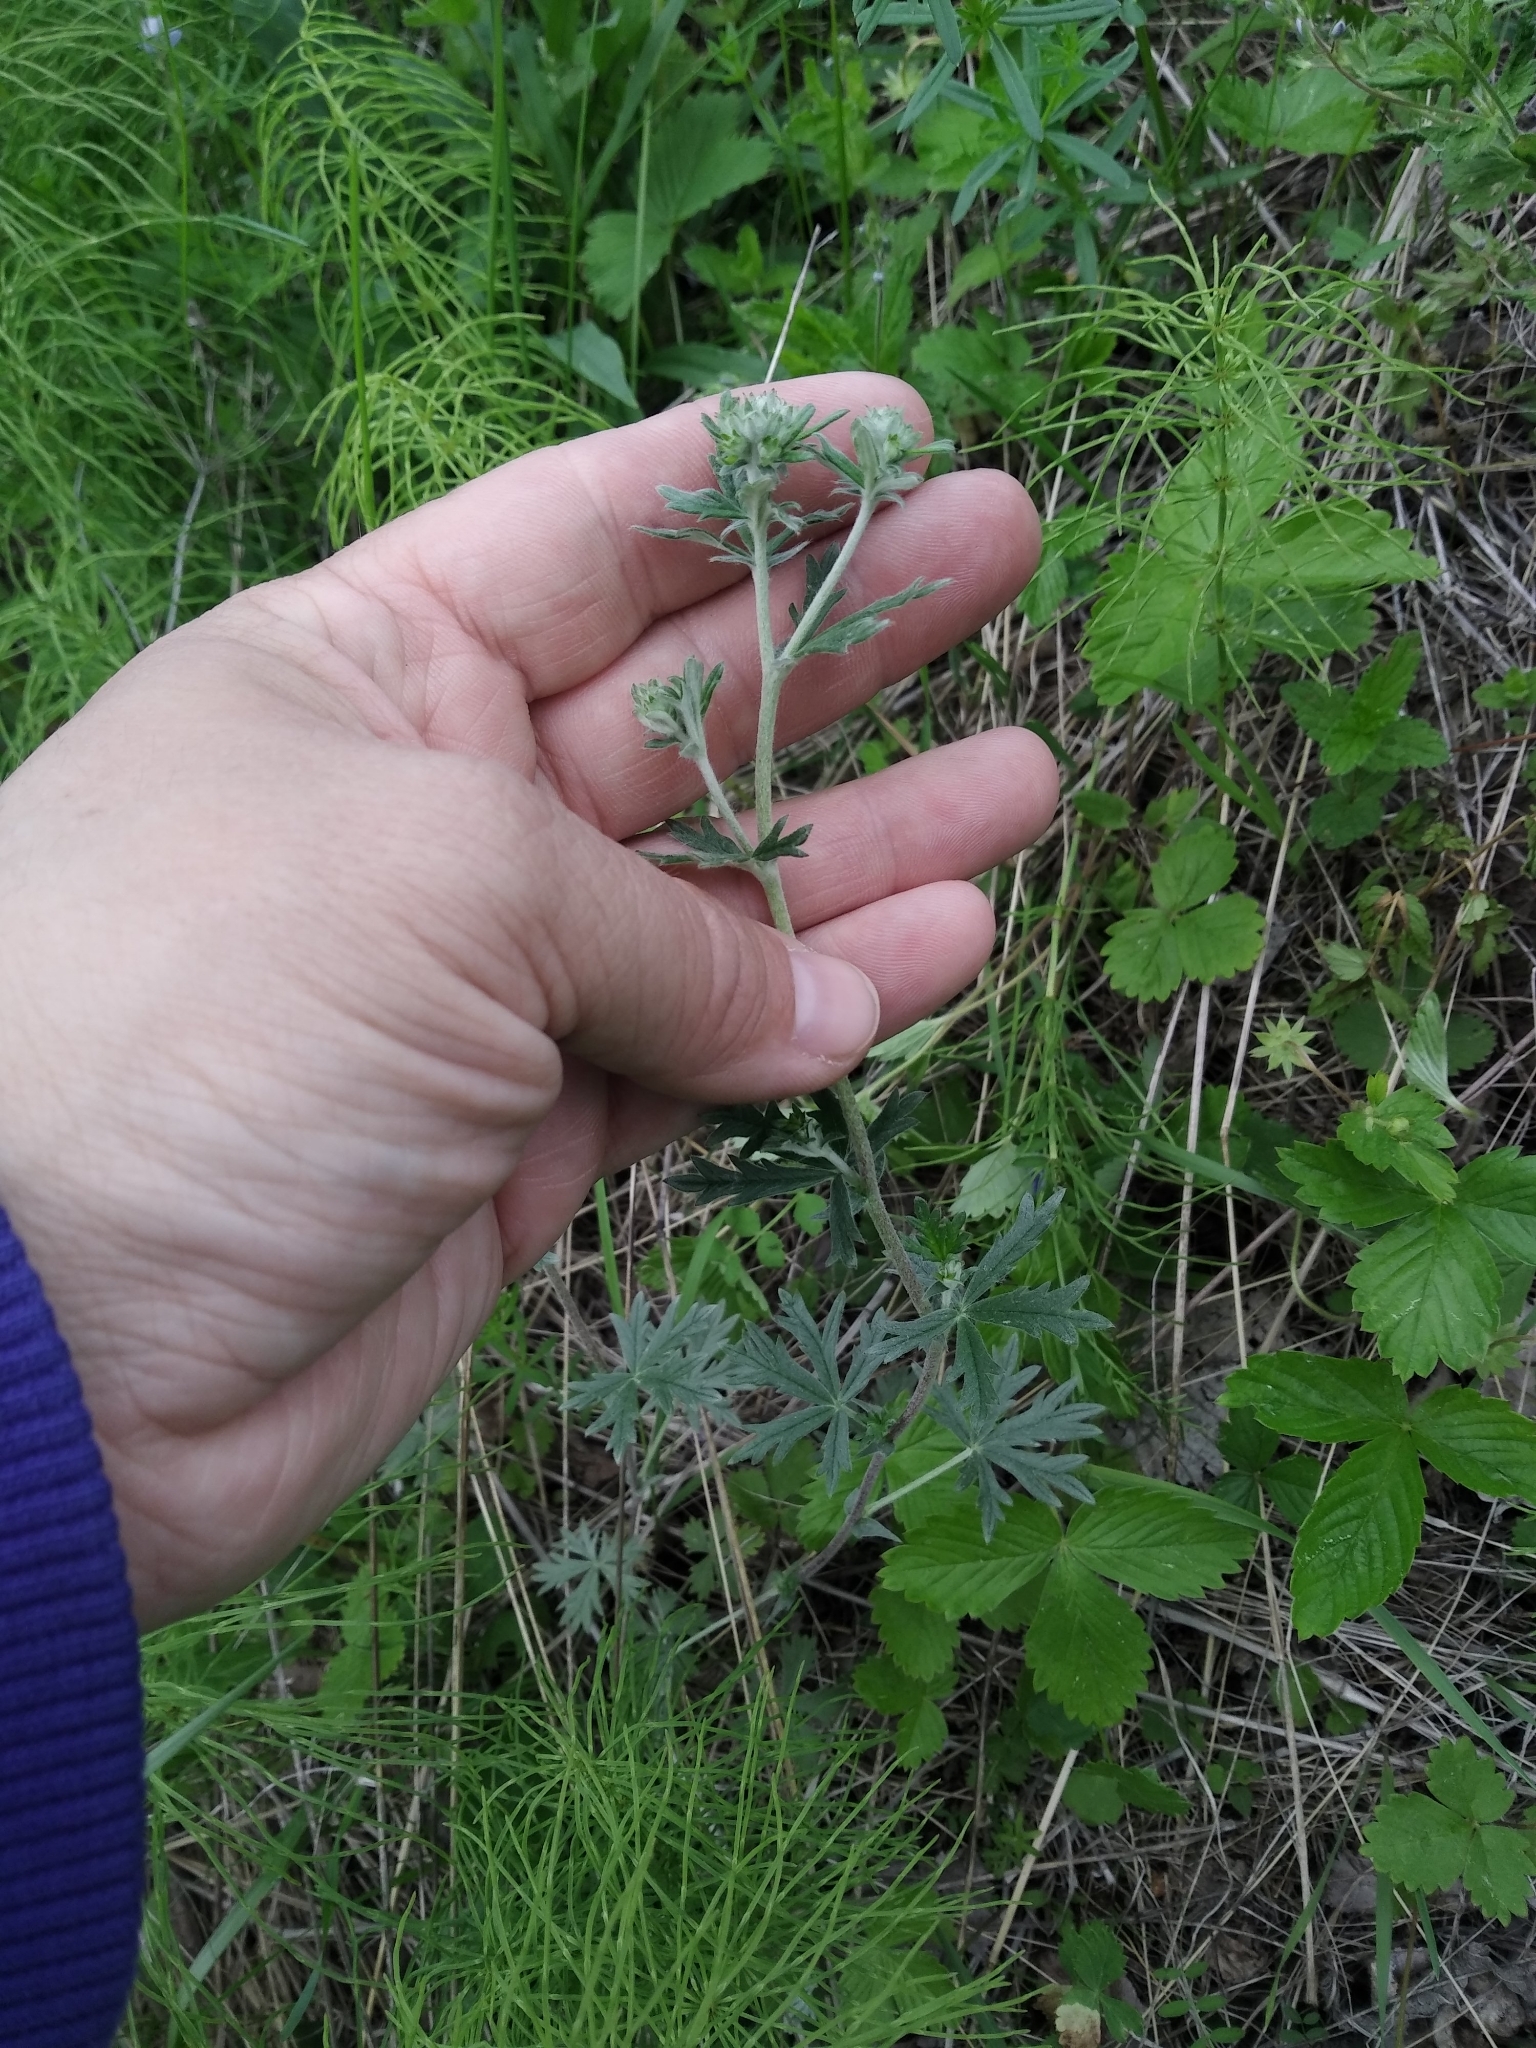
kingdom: Plantae
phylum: Tracheophyta
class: Magnoliopsida
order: Rosales
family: Rosaceae
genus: Potentilla
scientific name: Potentilla argentea
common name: Hoary cinquefoil
